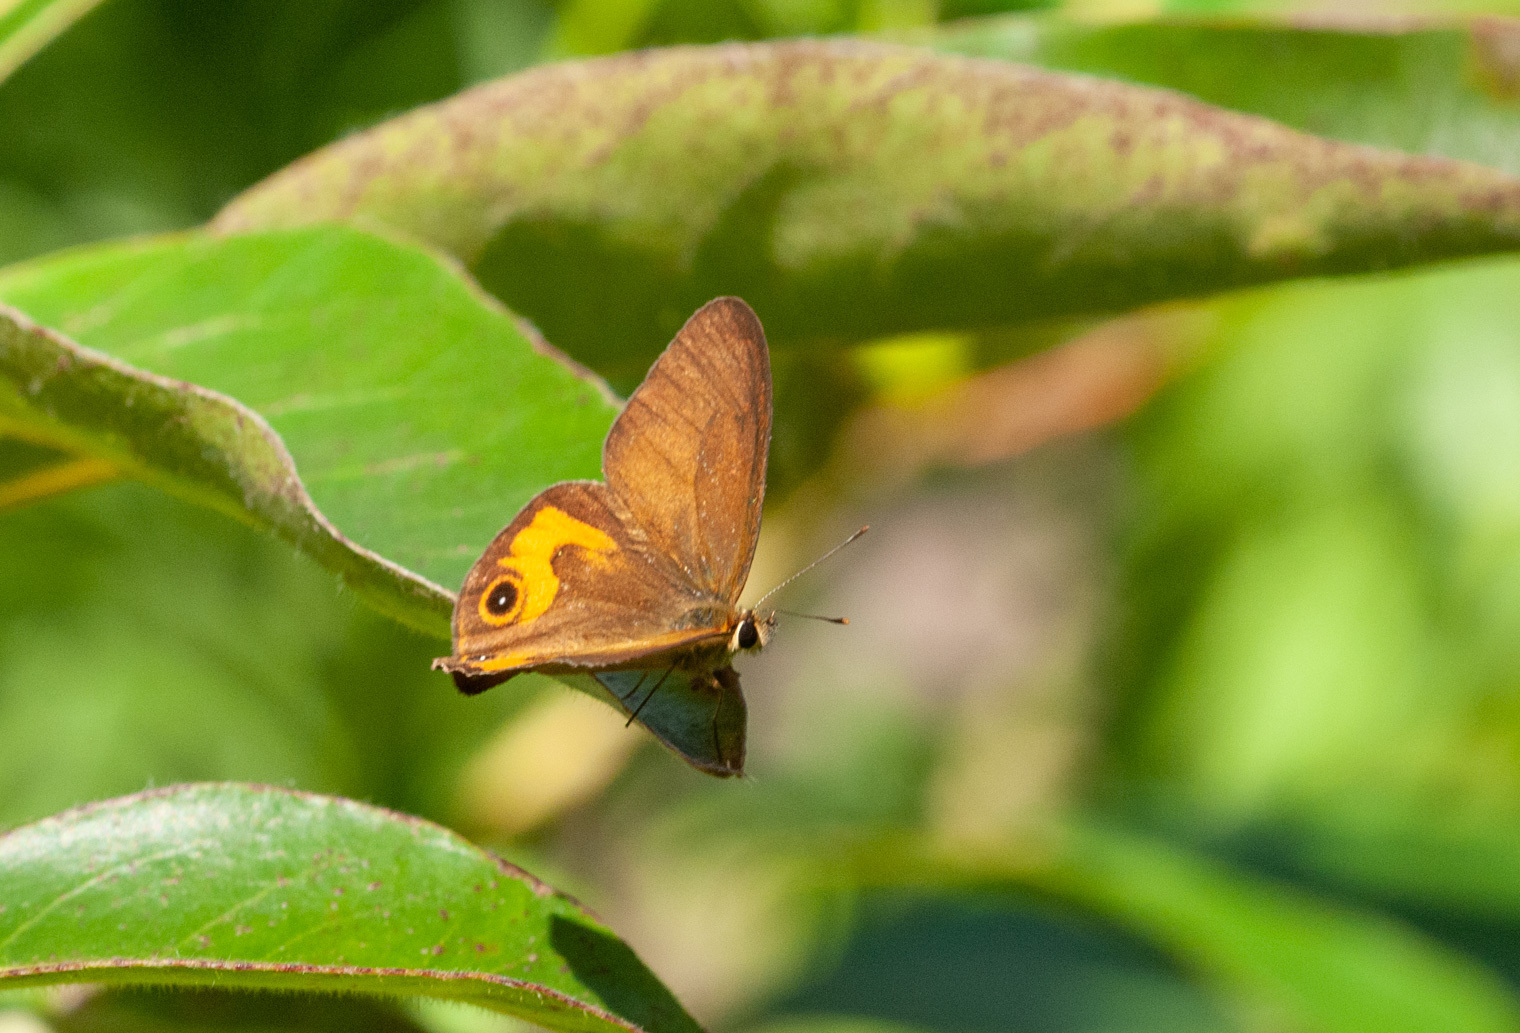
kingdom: Animalia
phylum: Arthropoda
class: Insecta
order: Lepidoptera
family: Nymphalidae
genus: Hypocysta
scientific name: Hypocysta metirius
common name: Brown ringlet
